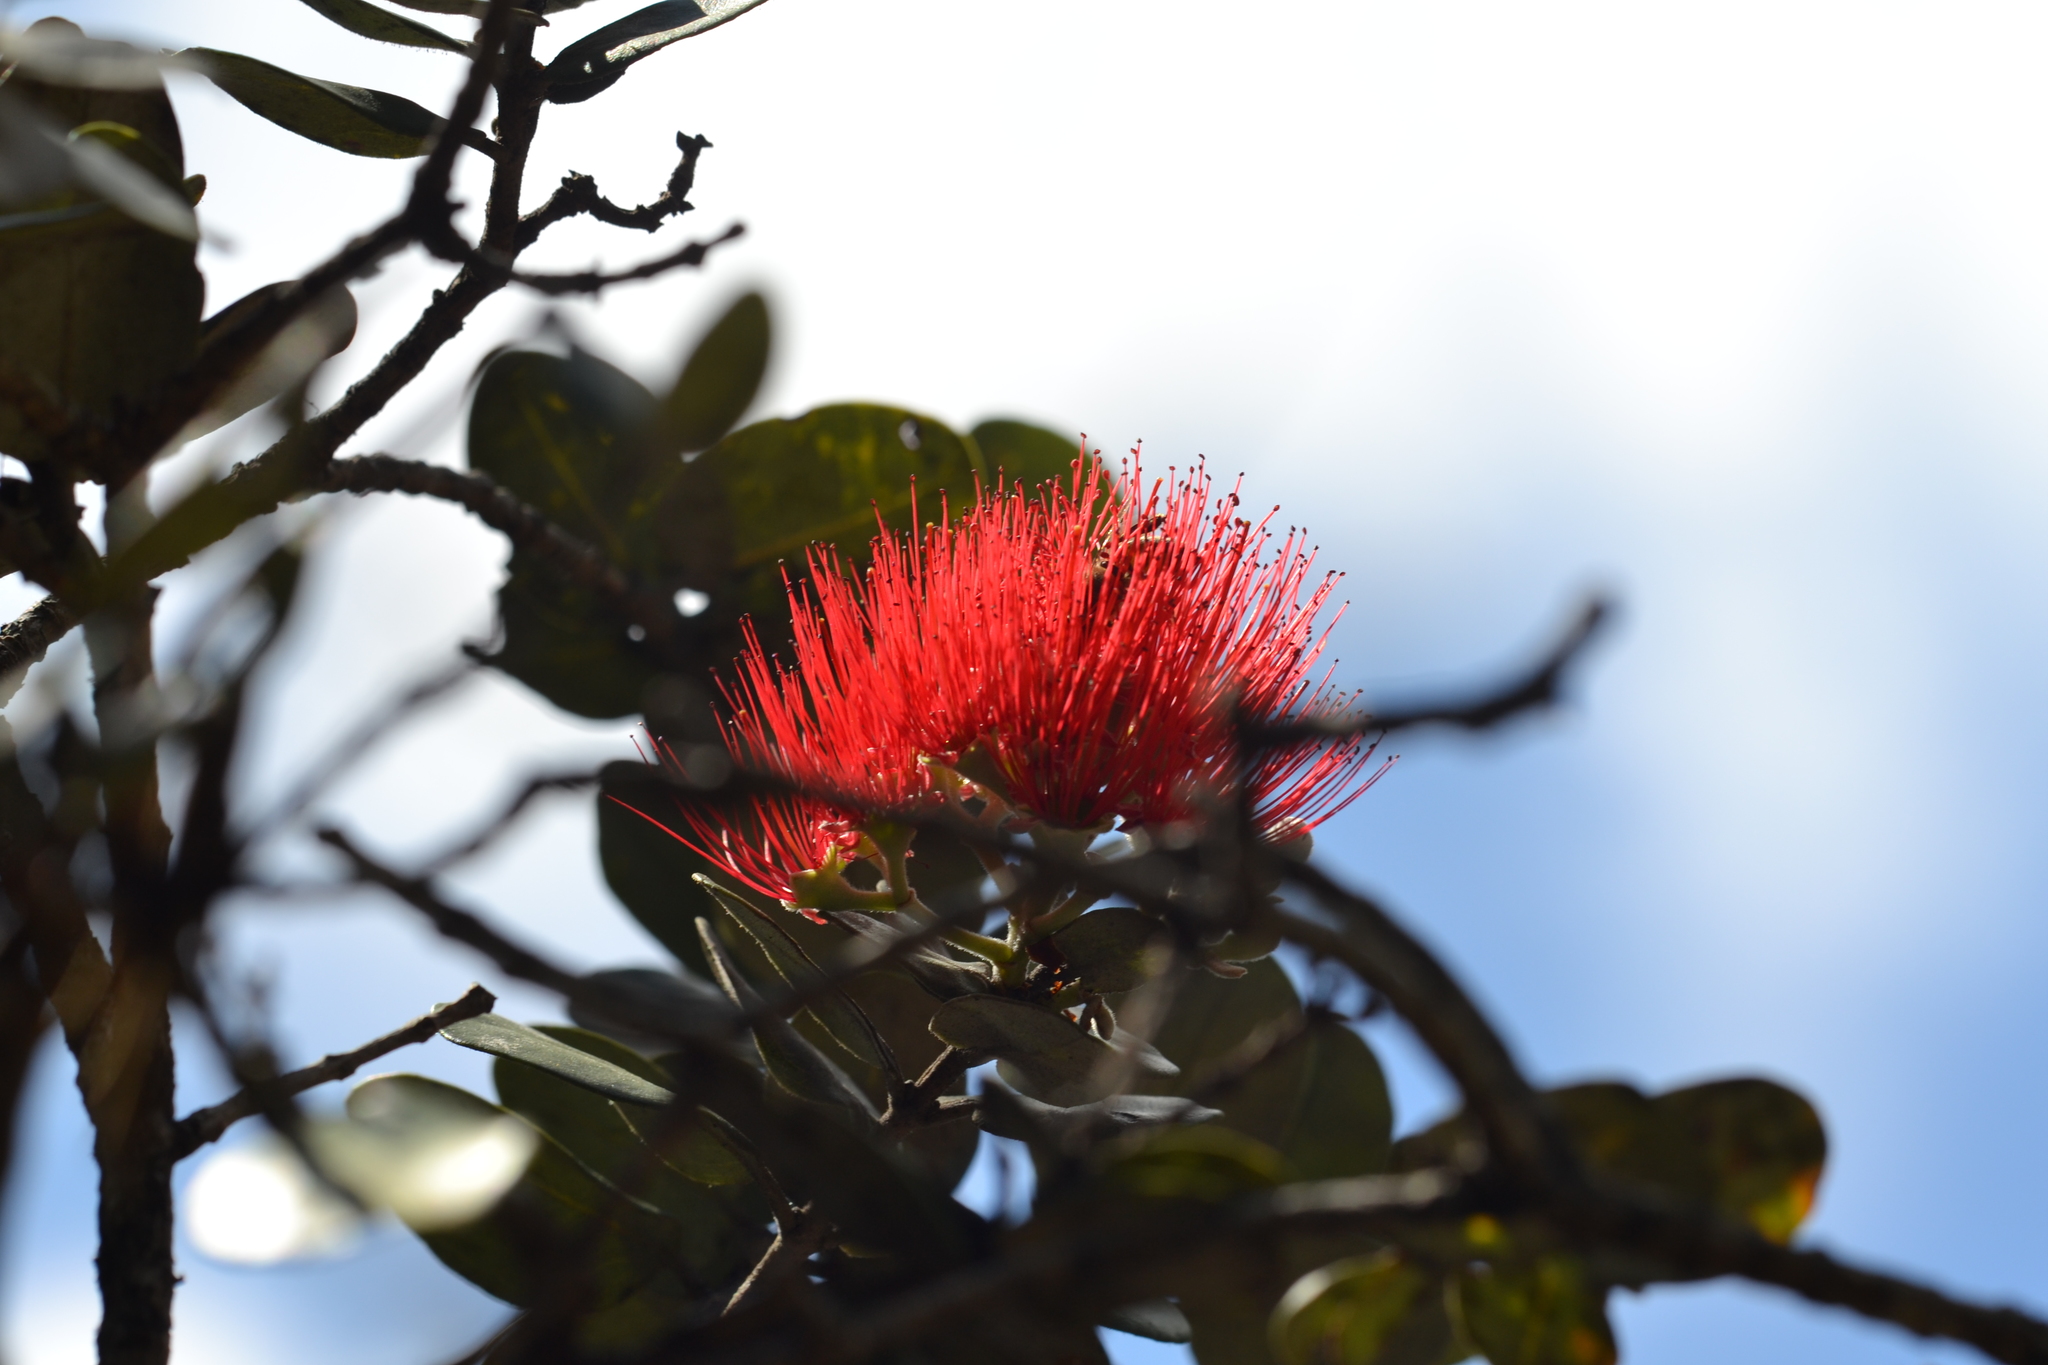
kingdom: Plantae
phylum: Tracheophyta
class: Magnoliopsida
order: Myrtales
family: Myrtaceae
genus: Metrosideros
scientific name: Metrosideros polymorpha
